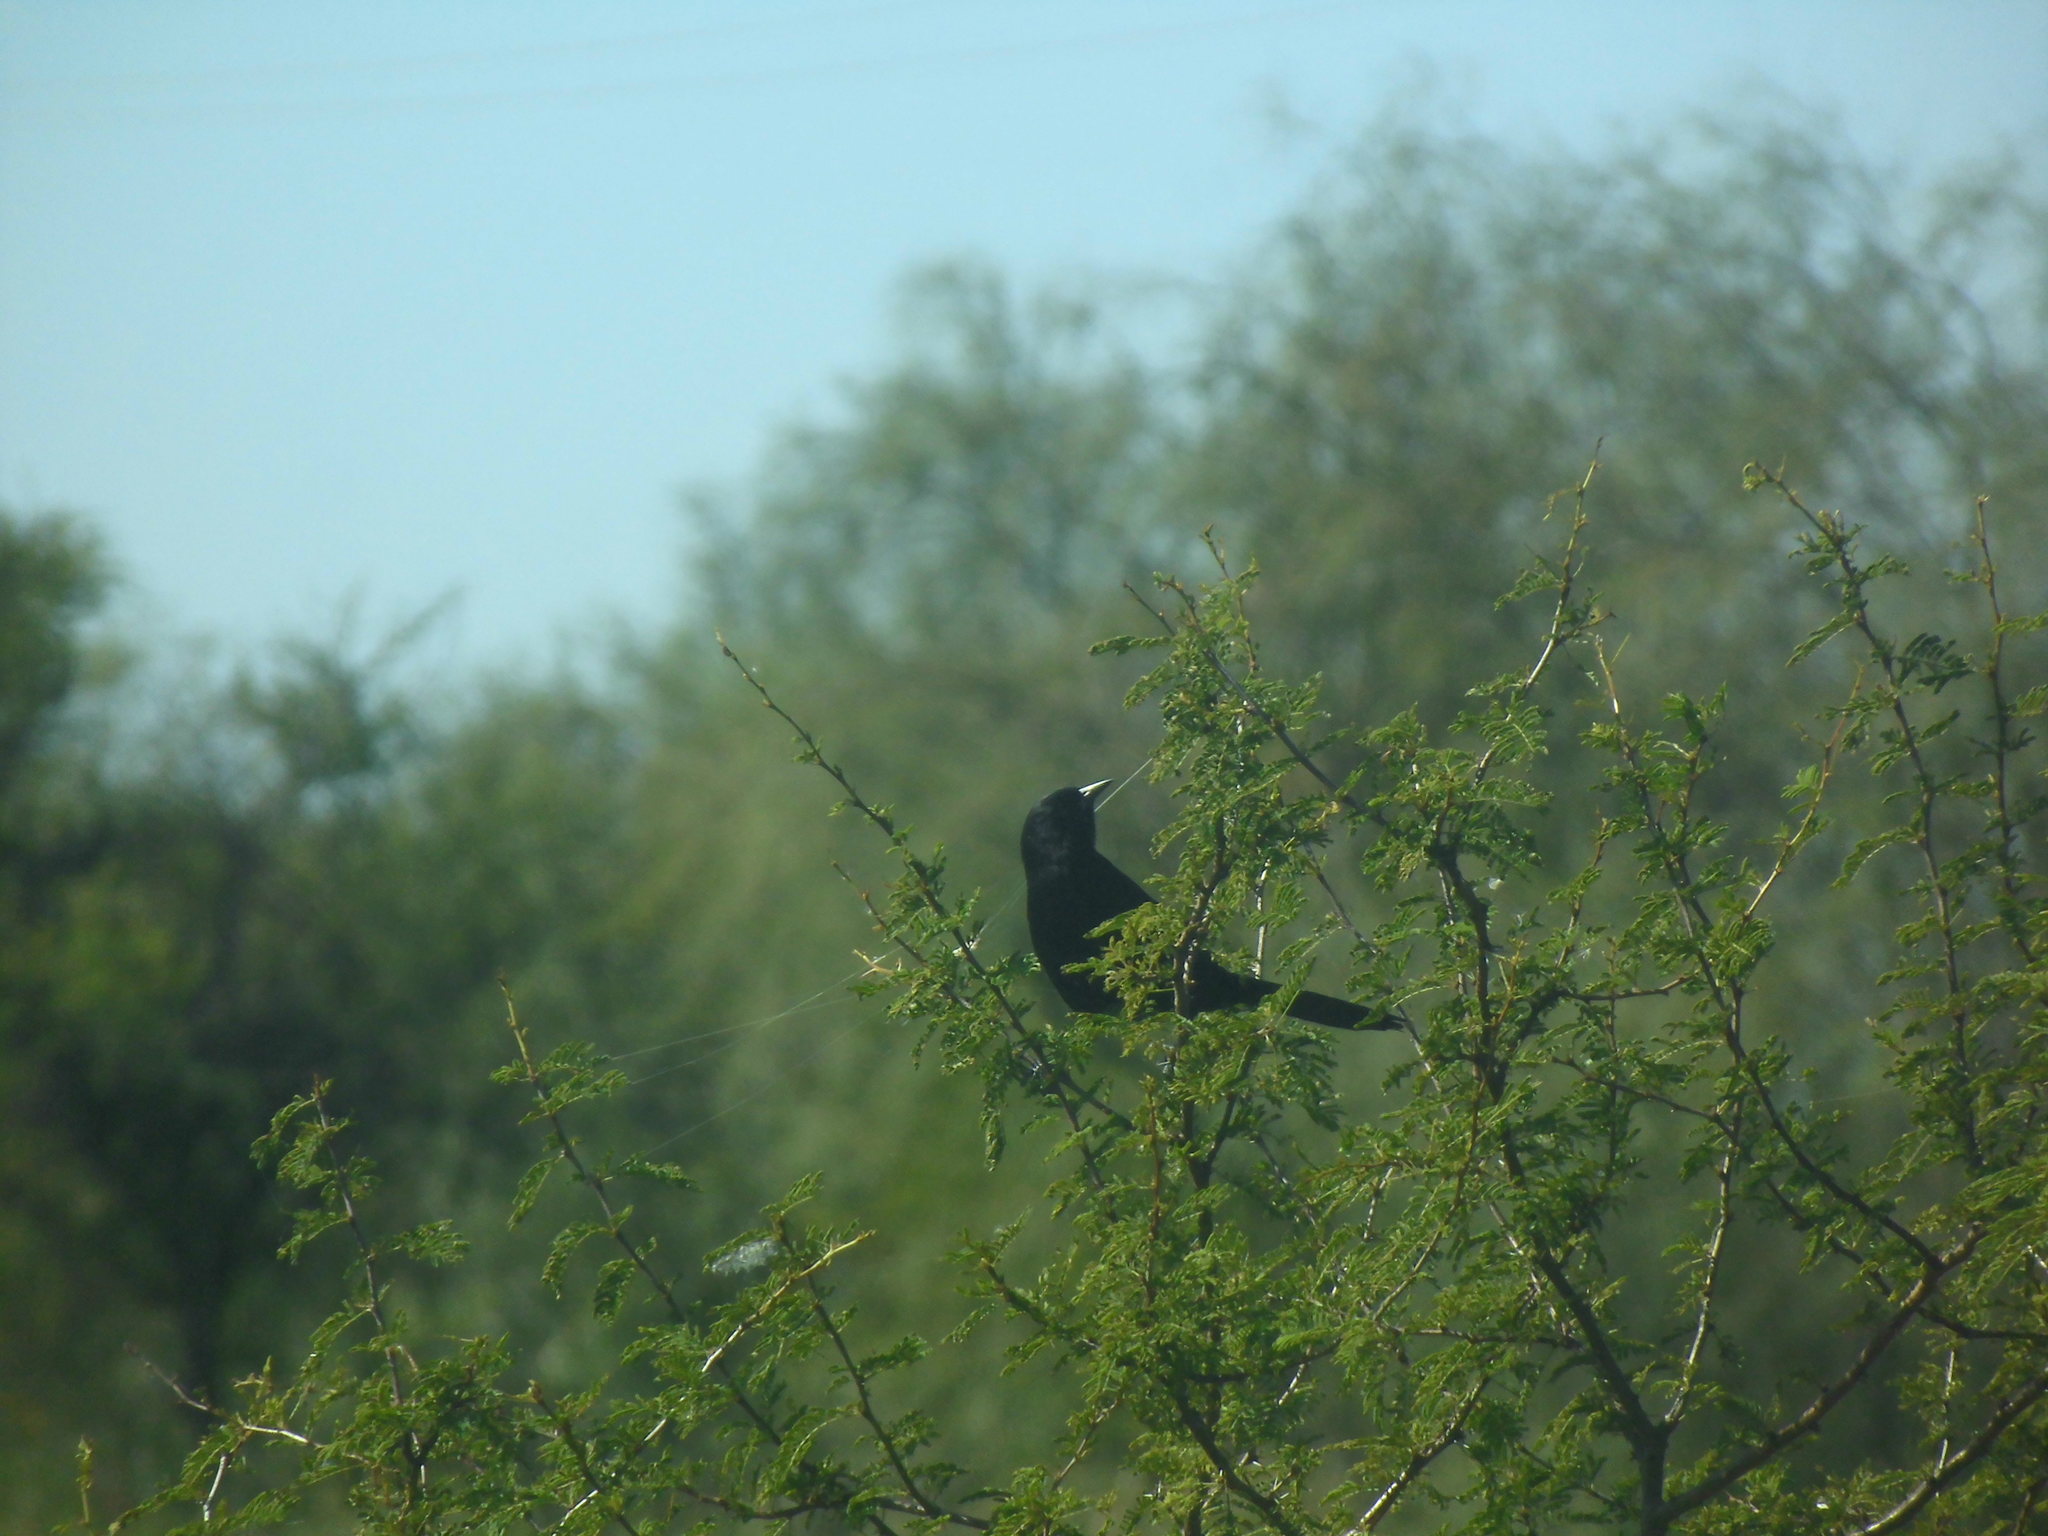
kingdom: Animalia
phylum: Chordata
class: Aves
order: Passeriformes
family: Icteridae
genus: Icterus
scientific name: Icterus cayanensis
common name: Epaulet oriole
